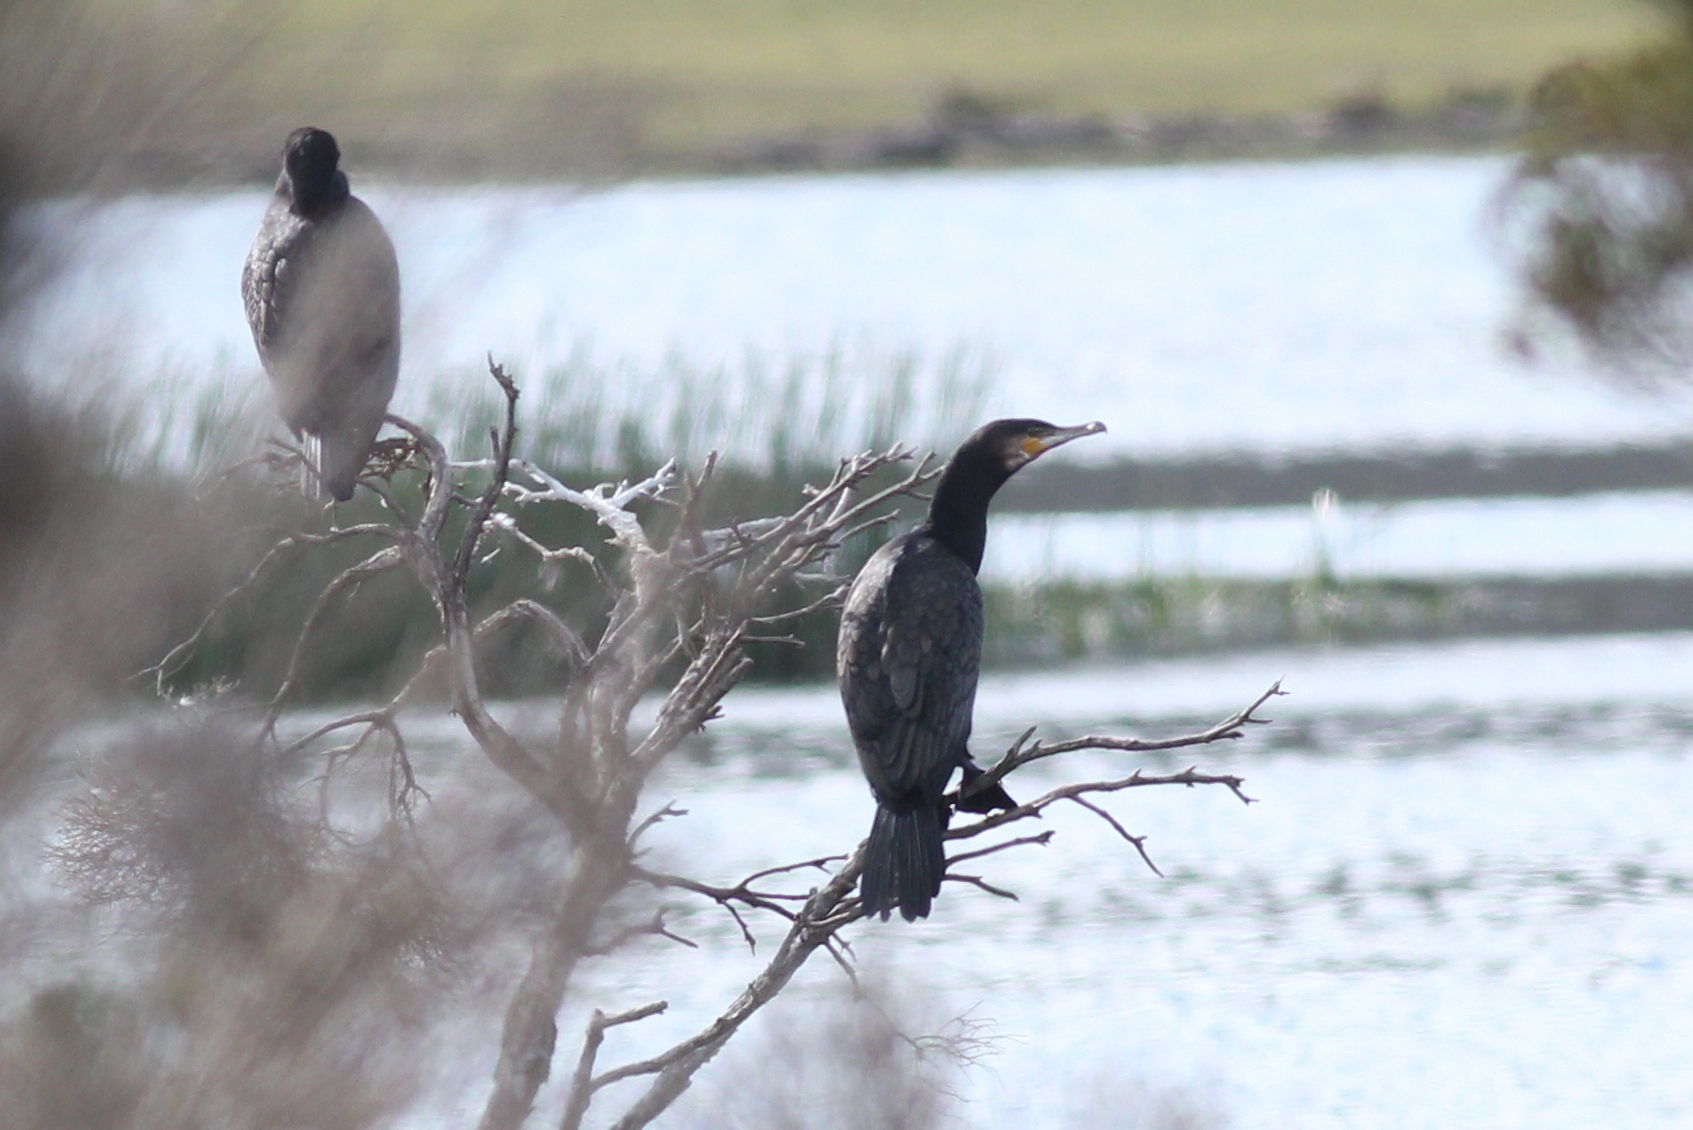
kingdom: Animalia
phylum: Chordata
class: Aves
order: Suliformes
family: Phalacrocoracidae
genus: Phalacrocorax
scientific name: Phalacrocorax carbo
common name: Great cormorant
